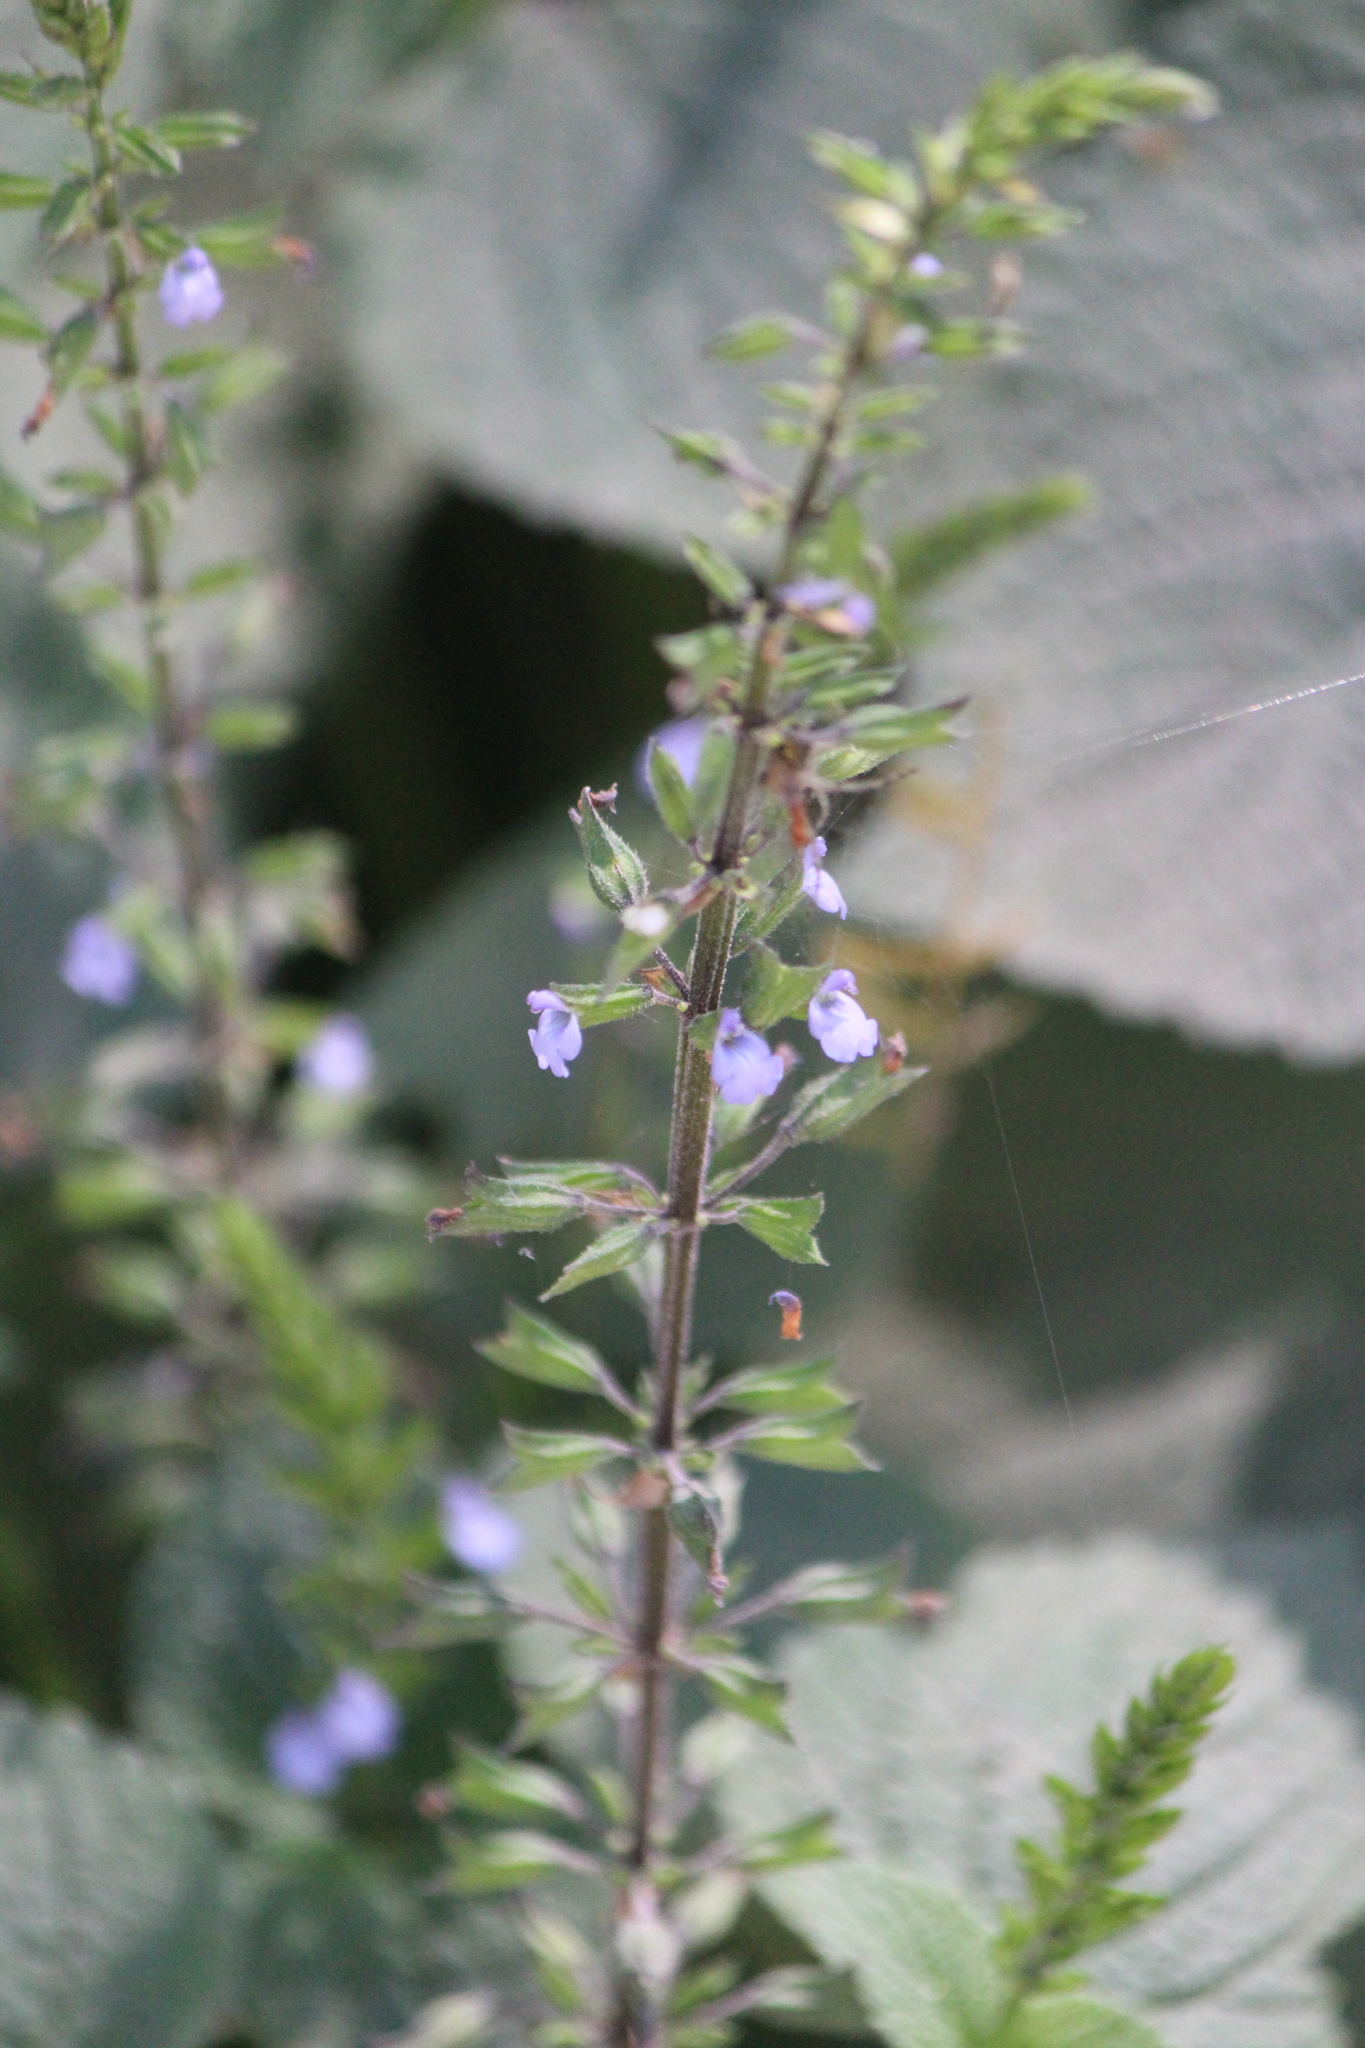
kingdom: Plantae
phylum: Tracheophyta
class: Magnoliopsida
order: Lamiales
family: Lamiaceae
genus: Salvia
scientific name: Salvia tiliifolia
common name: Lindenleaf sage
